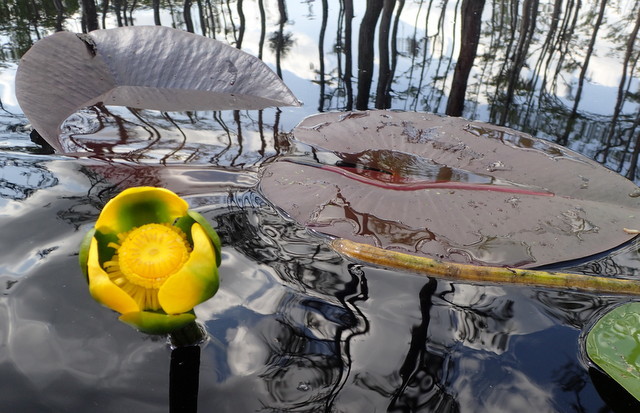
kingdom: Plantae
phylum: Tracheophyta
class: Magnoliopsida
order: Nymphaeales
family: Nymphaeaceae
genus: Nuphar
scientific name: Nuphar advena
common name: Spatter-dock
